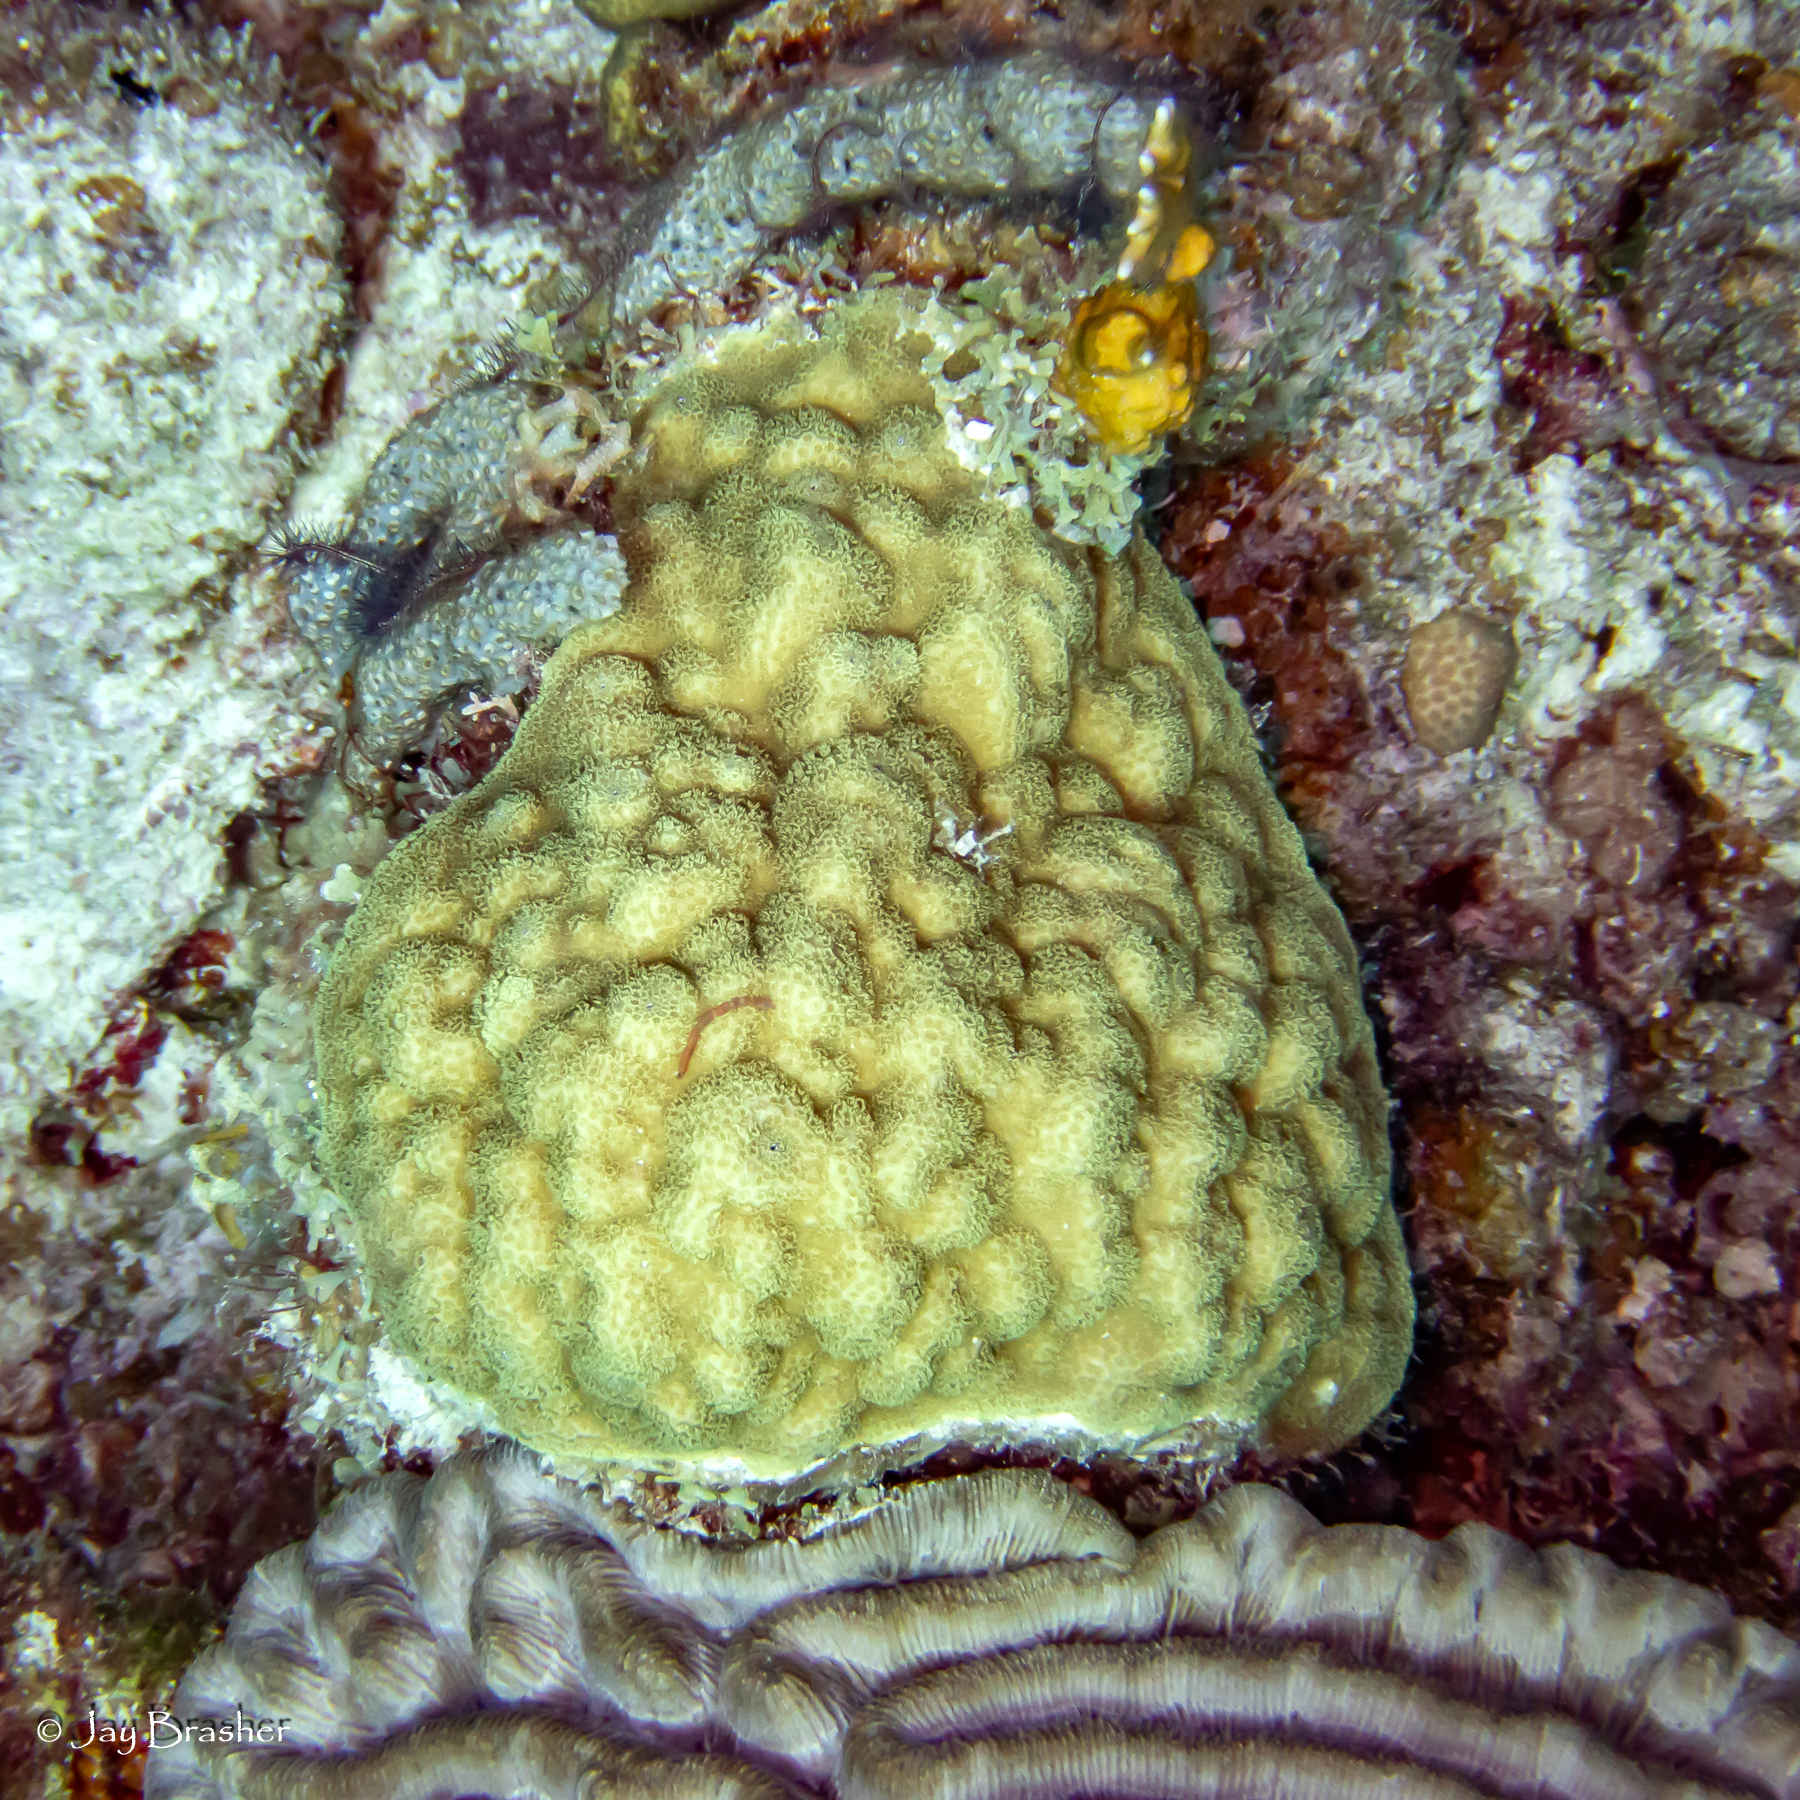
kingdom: Animalia
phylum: Cnidaria
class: Anthozoa
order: Scleractinia
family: Poritidae
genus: Porites
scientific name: Porites astreoides
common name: Mustard hill coral
